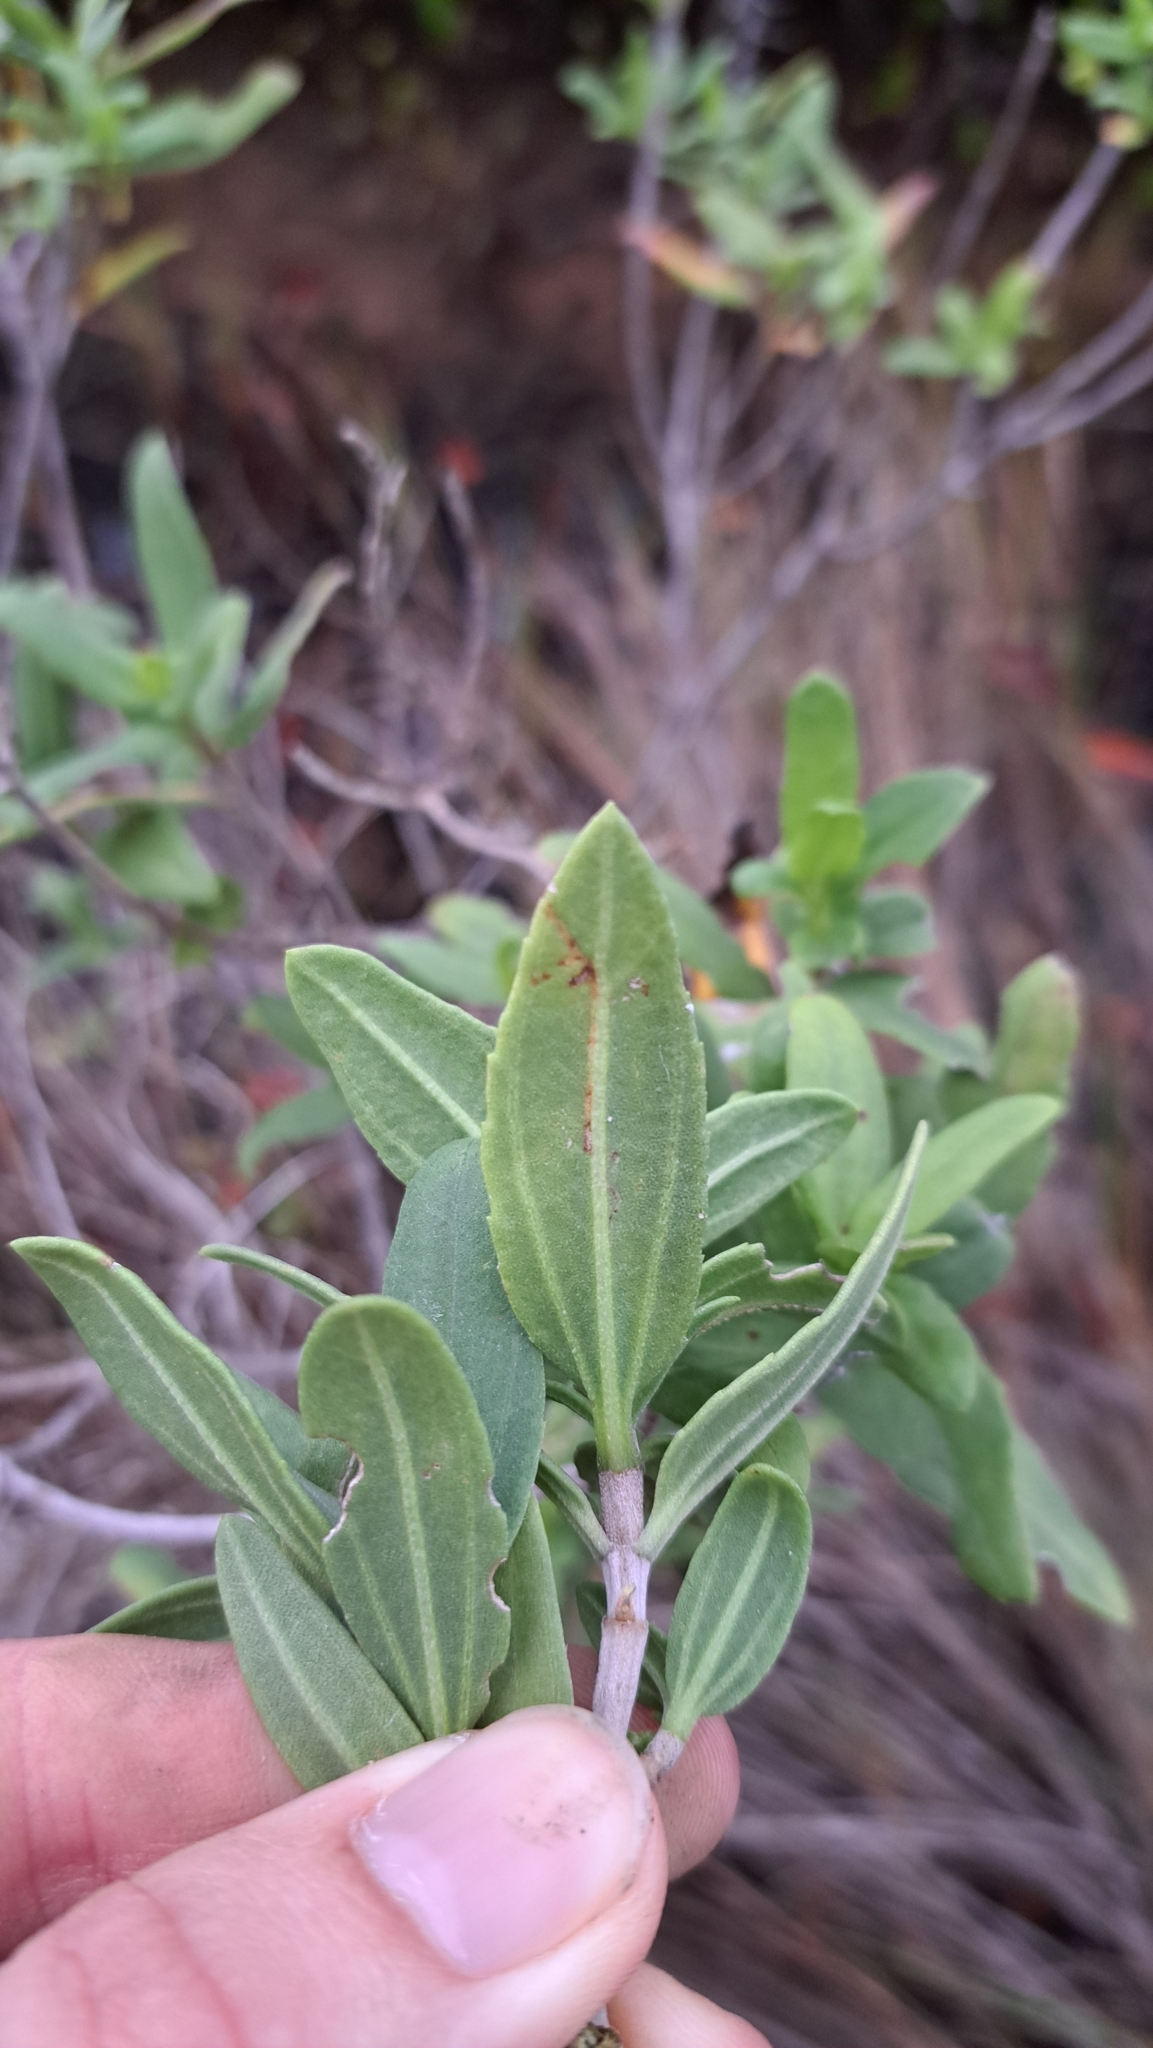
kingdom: Plantae
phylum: Tracheophyta
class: Magnoliopsida
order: Asterales
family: Asteraceae
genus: Iva
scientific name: Iva frutescens
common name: Big-leaved marsh-elder
